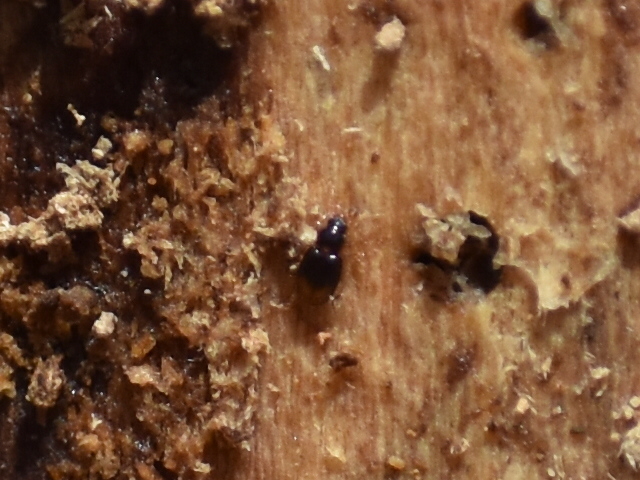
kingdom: Animalia
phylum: Arthropoda
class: Insecta
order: Coleoptera
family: Carabidae
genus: Mioptachys
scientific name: Mioptachys flavicauda
